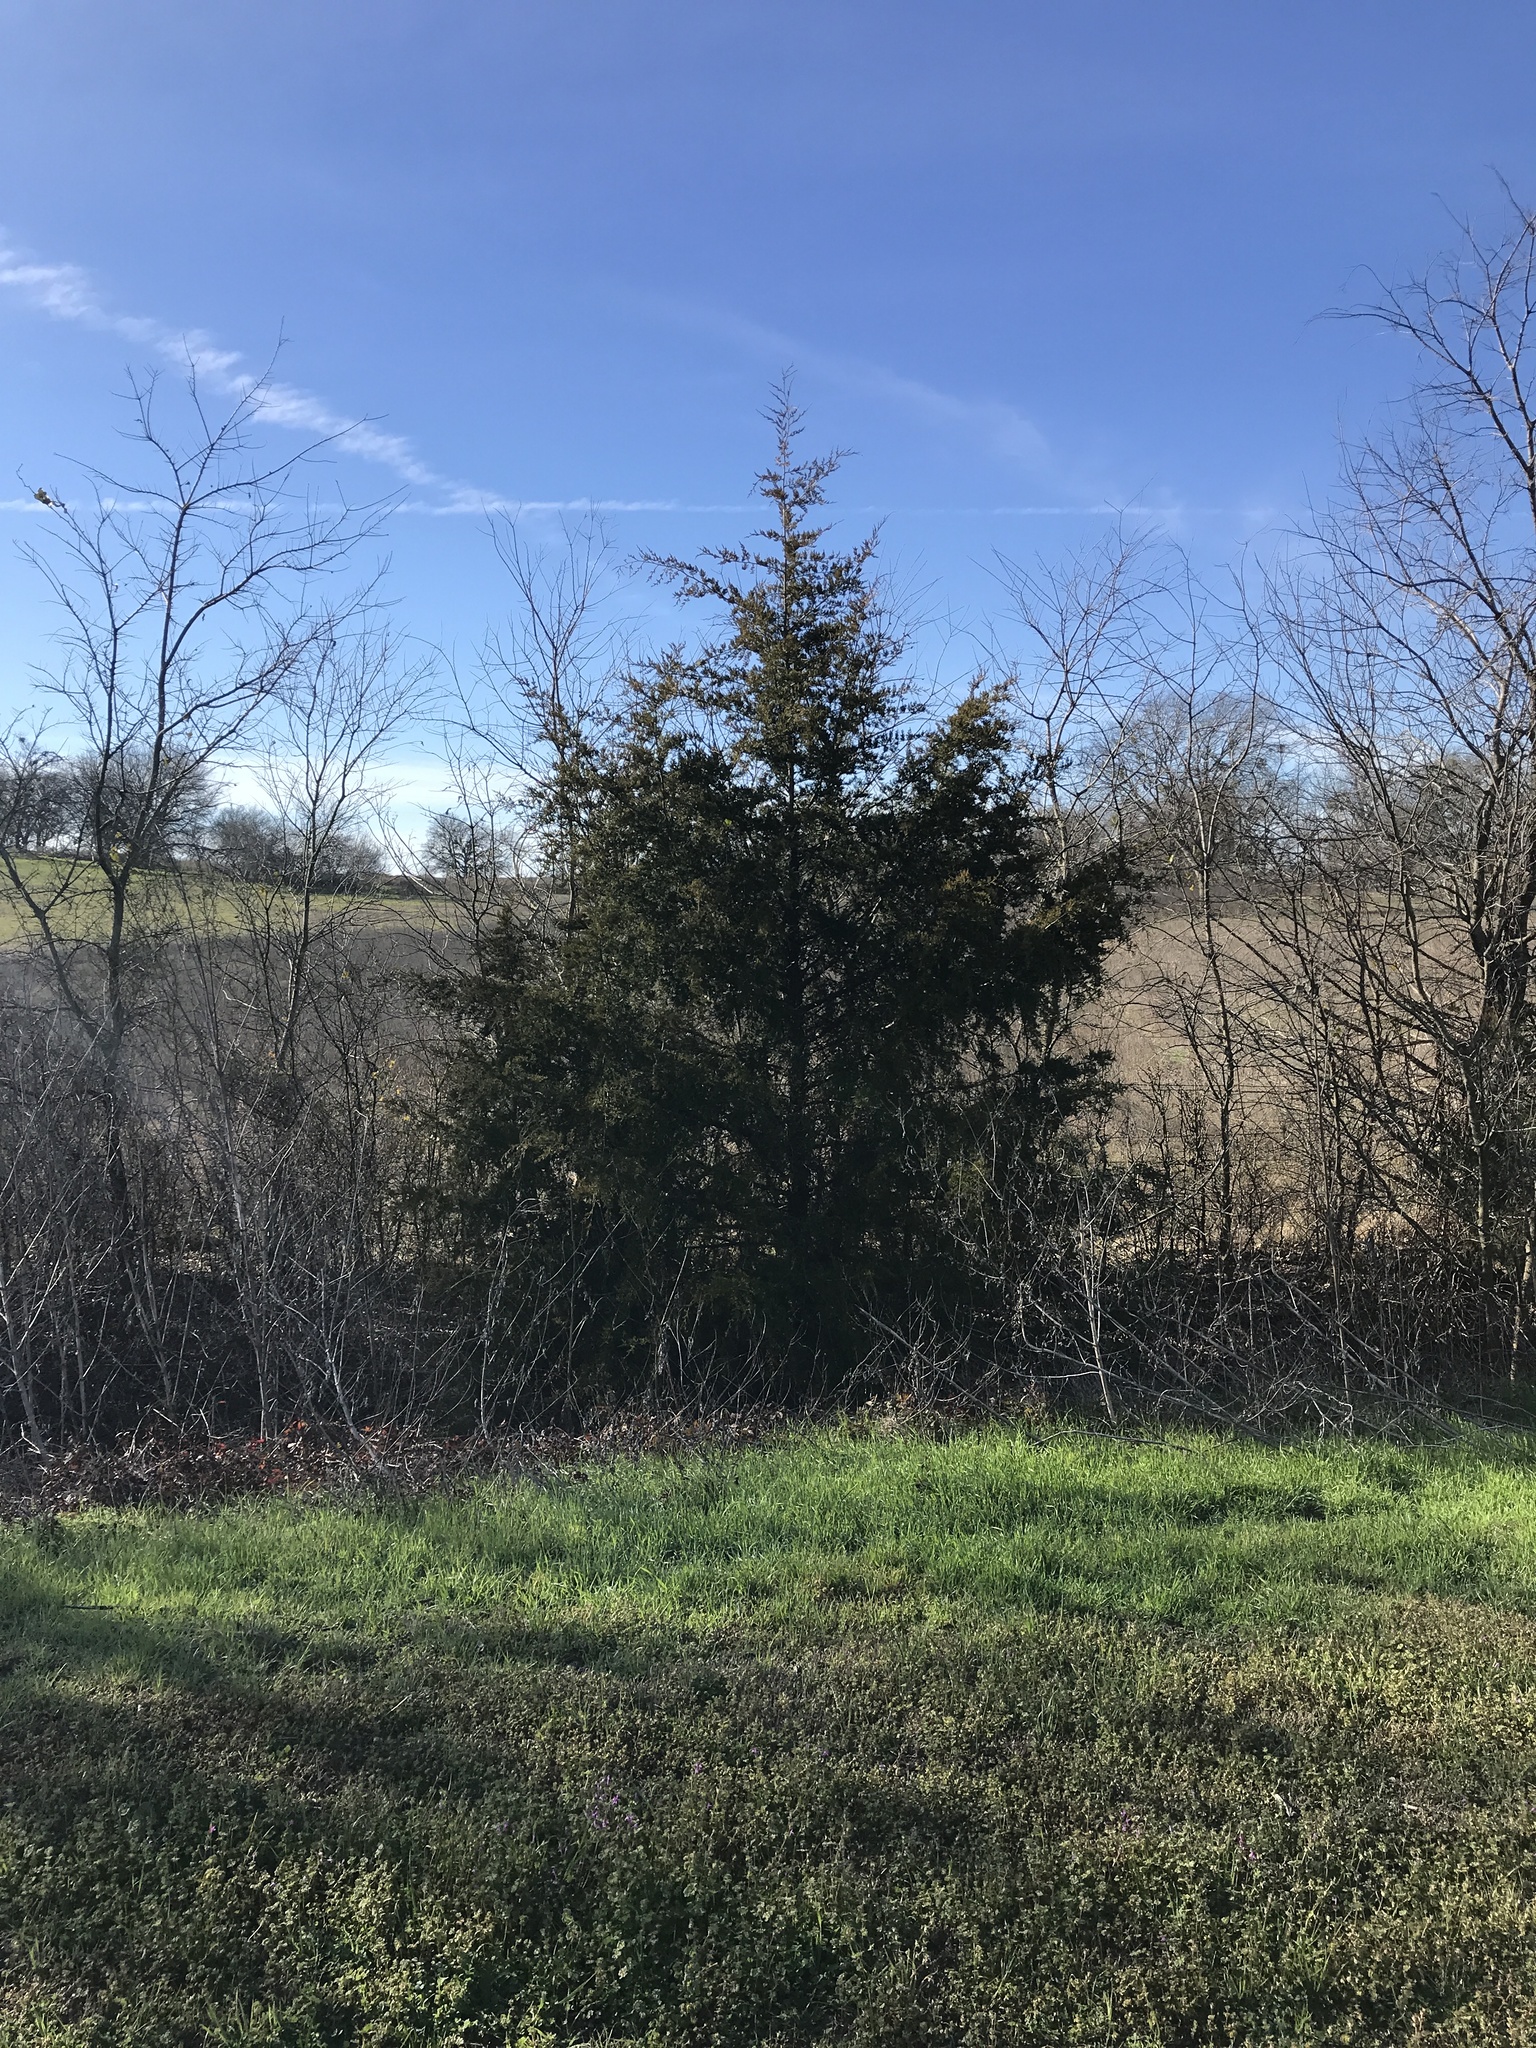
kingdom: Plantae
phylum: Tracheophyta
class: Pinopsida
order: Pinales
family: Cupressaceae
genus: Juniperus
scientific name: Juniperus virginiana
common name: Red juniper
